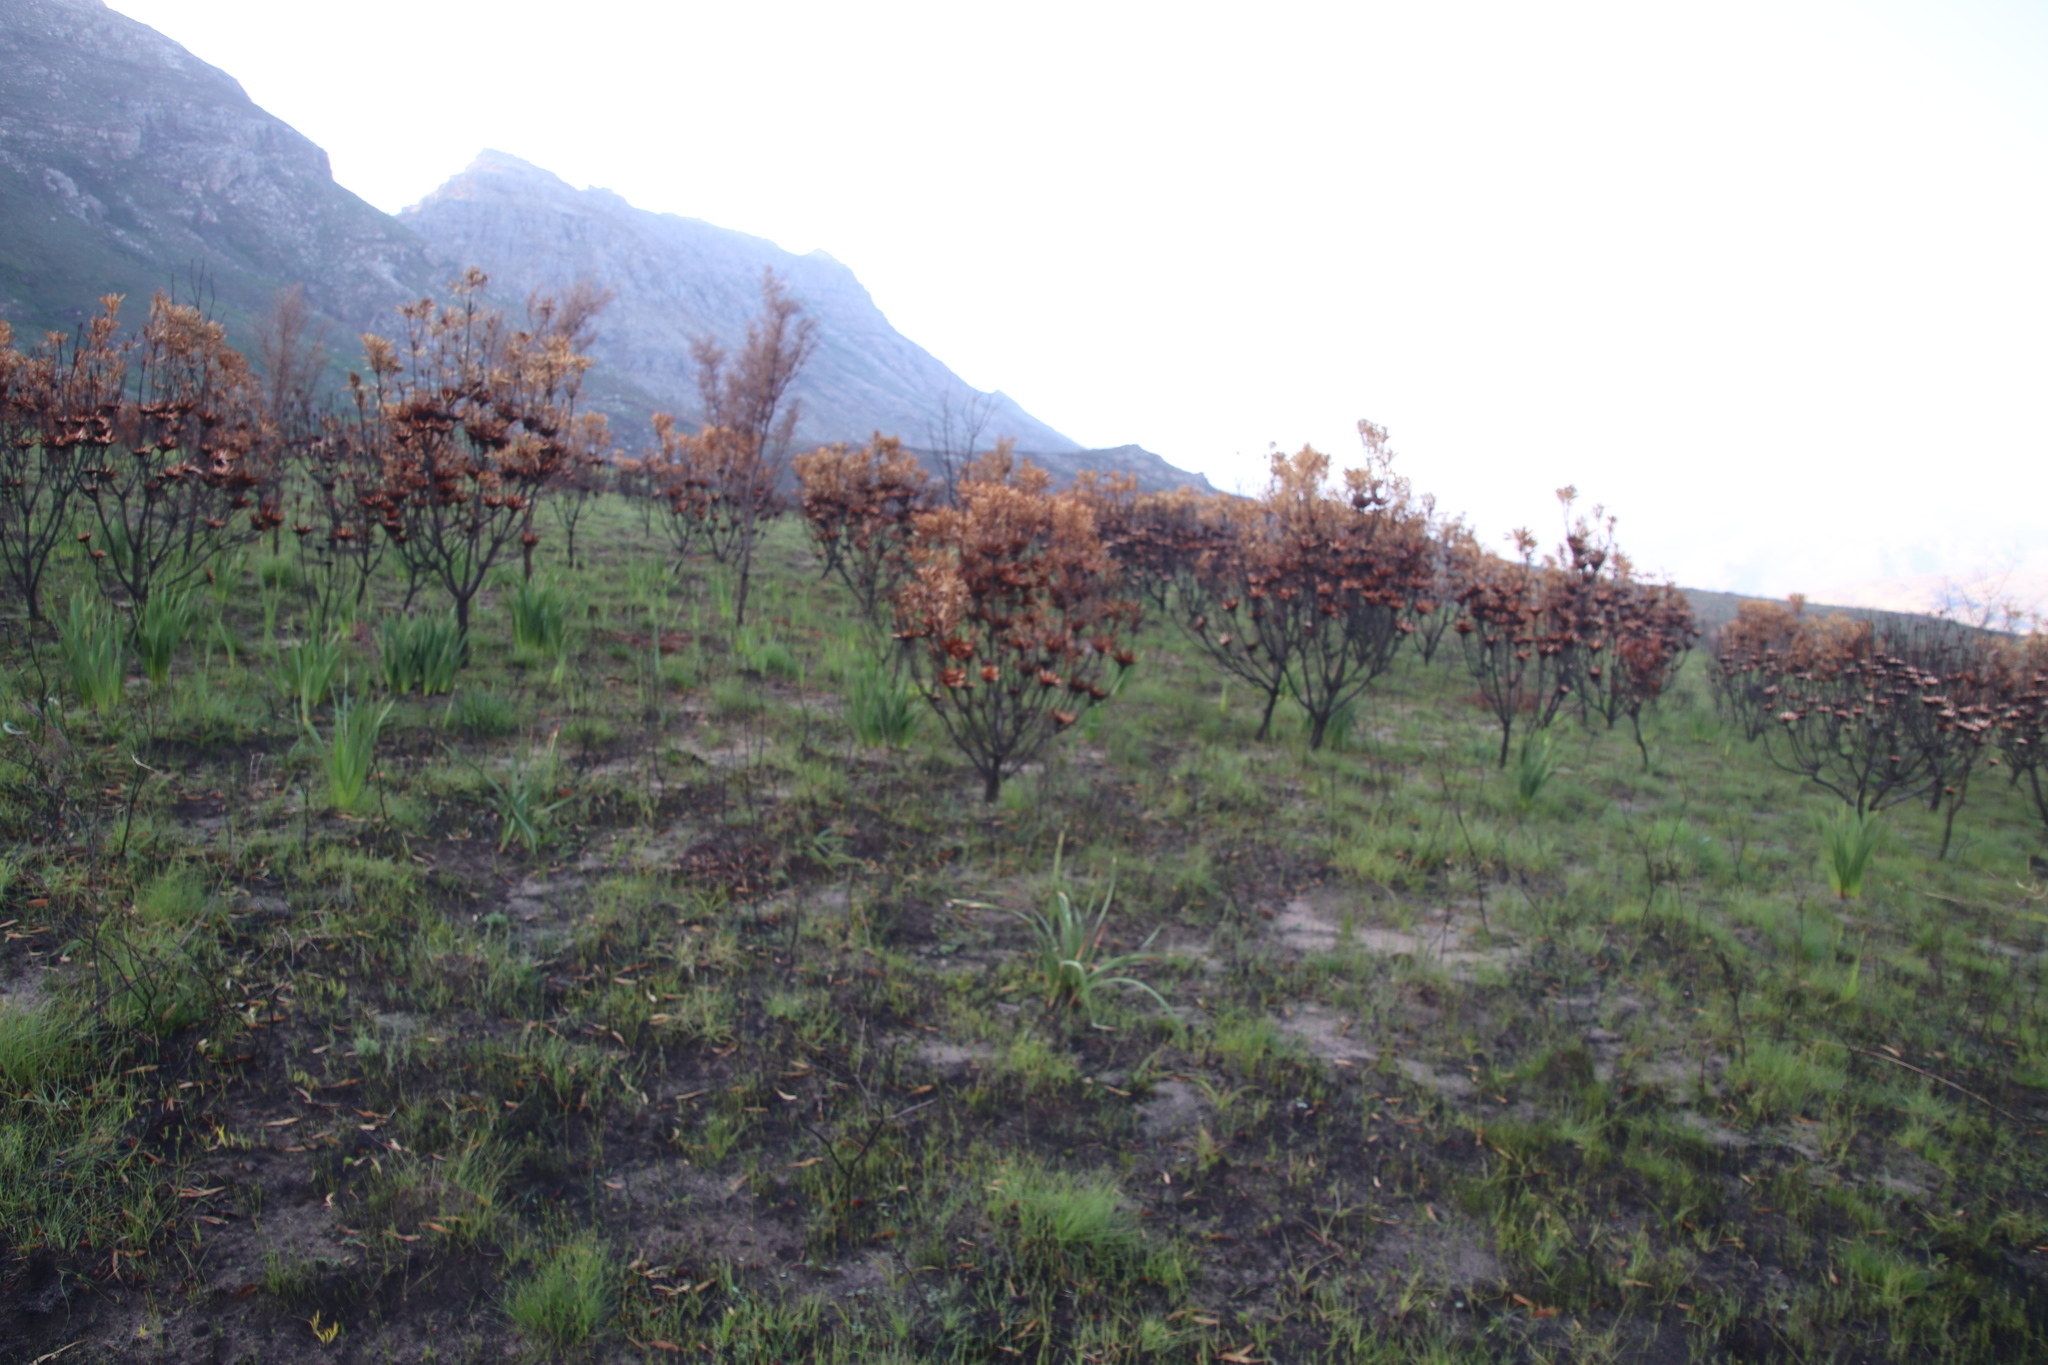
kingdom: Plantae
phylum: Tracheophyta
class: Magnoliopsida
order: Proteales
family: Proteaceae
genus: Protea
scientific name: Protea repens
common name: Sugarbush
